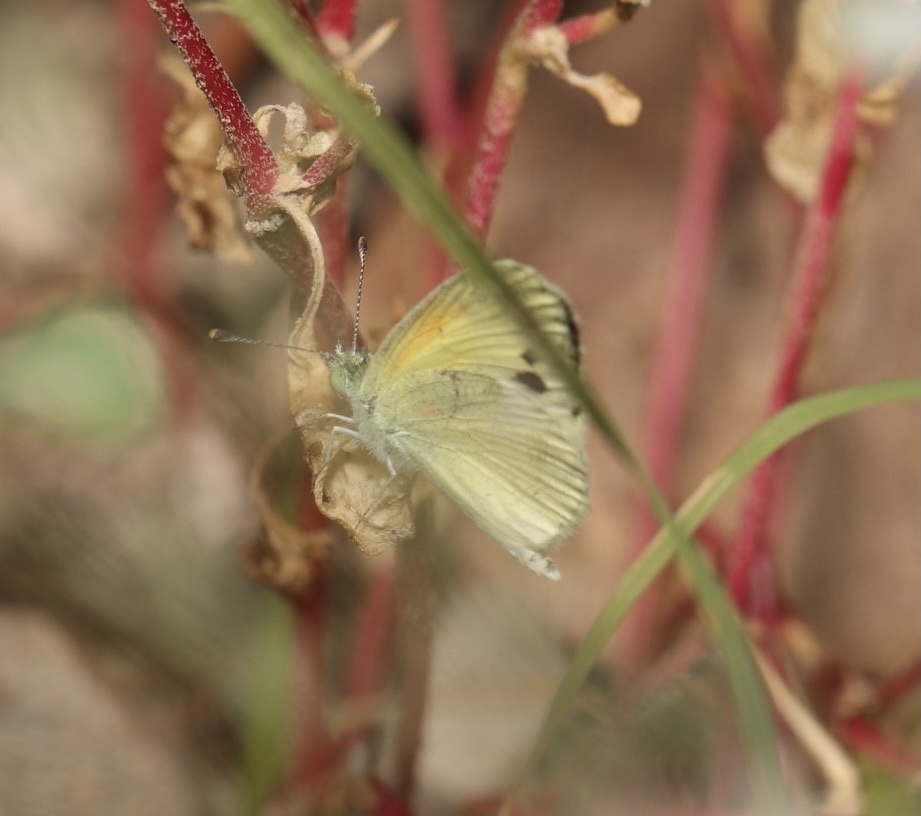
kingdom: Animalia
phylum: Arthropoda
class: Insecta
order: Lepidoptera
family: Pieridae
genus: Nathalis
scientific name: Nathalis iole
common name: Dainty sulphur
